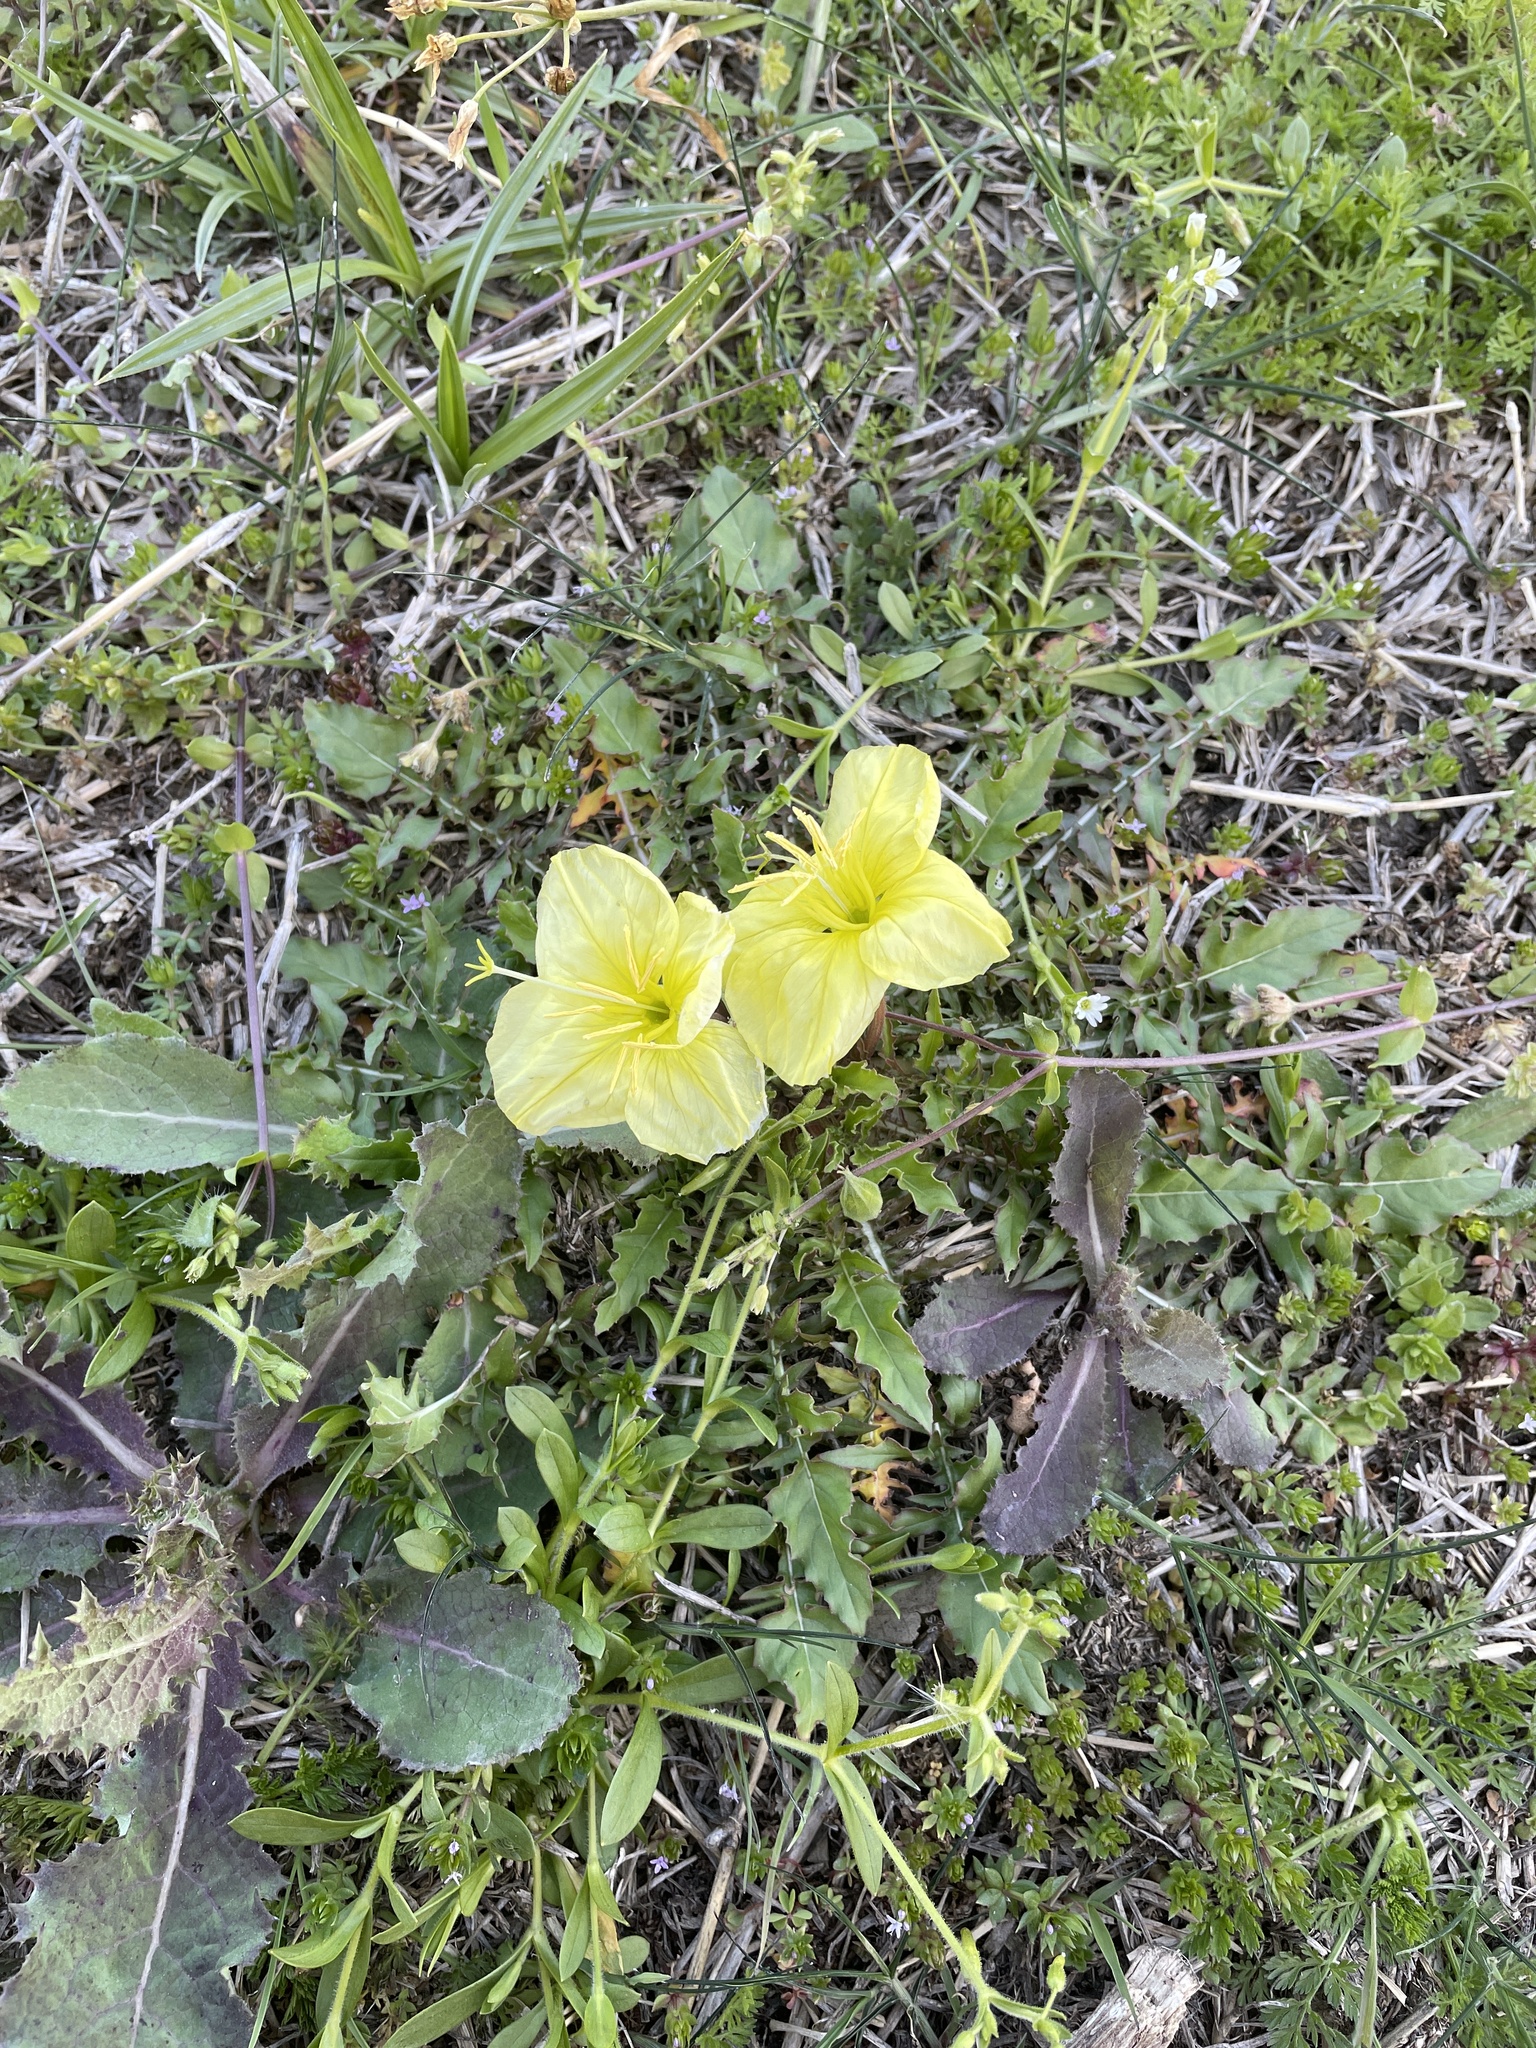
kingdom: Plantae
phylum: Tracheophyta
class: Magnoliopsida
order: Myrtales
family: Onagraceae
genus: Oenothera
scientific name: Oenothera triloba
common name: Sessile evening-primrose
